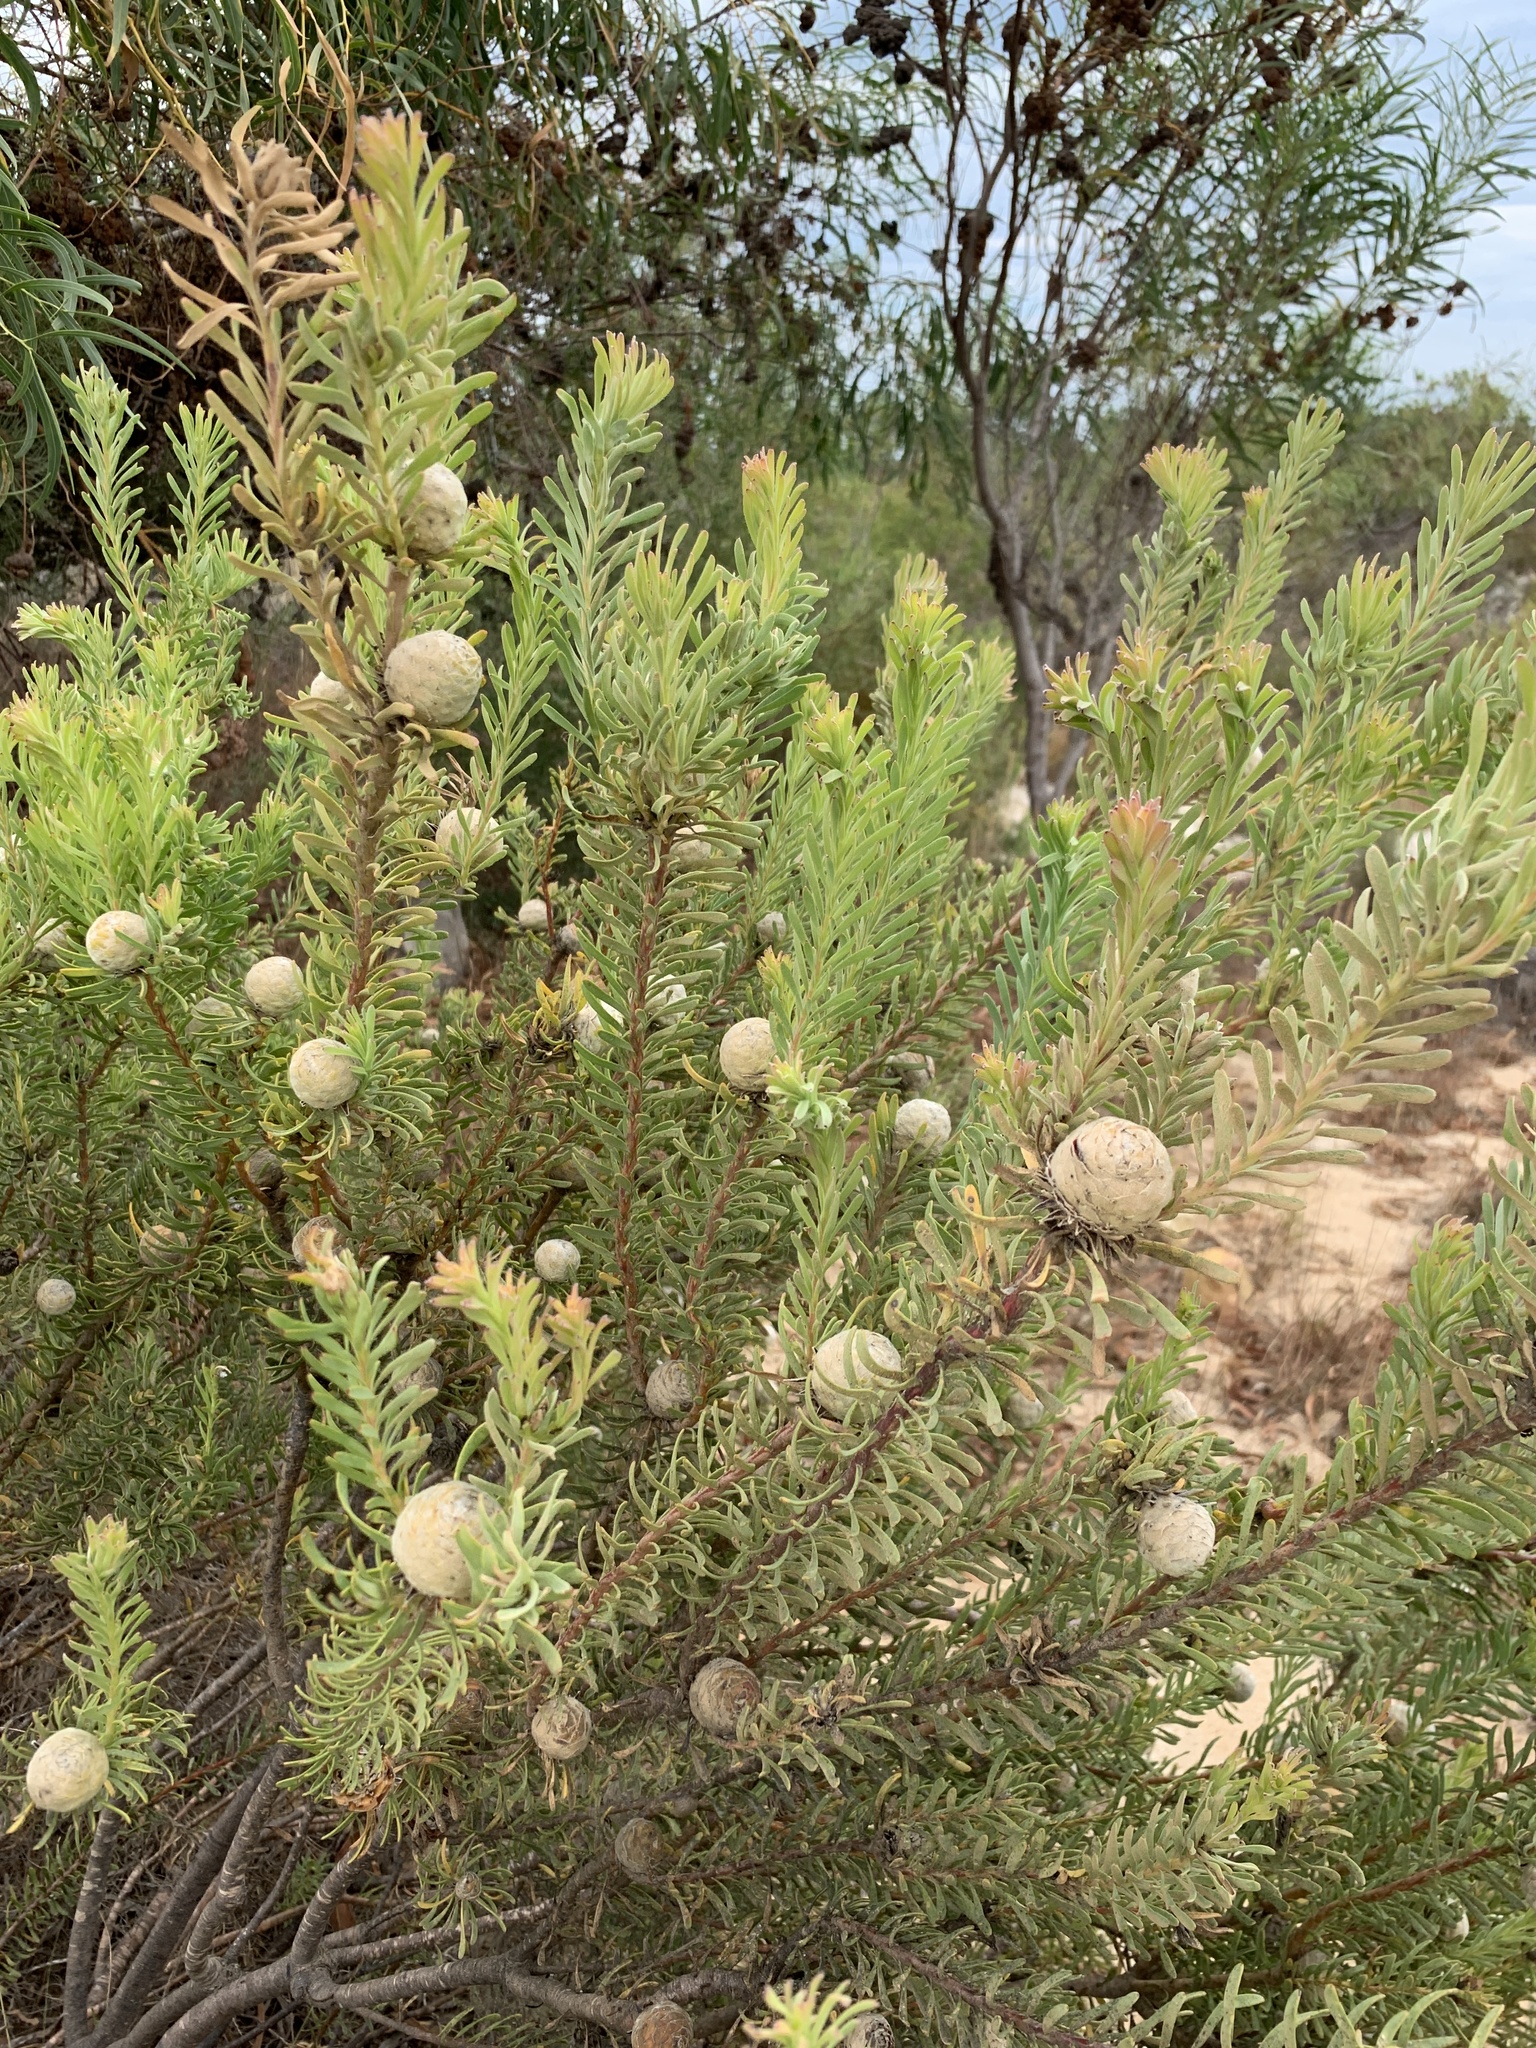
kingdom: Plantae
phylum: Tracheophyta
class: Magnoliopsida
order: Proteales
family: Proteaceae
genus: Leucadendron
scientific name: Leucadendron linifolium
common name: Line-leaf conebush
